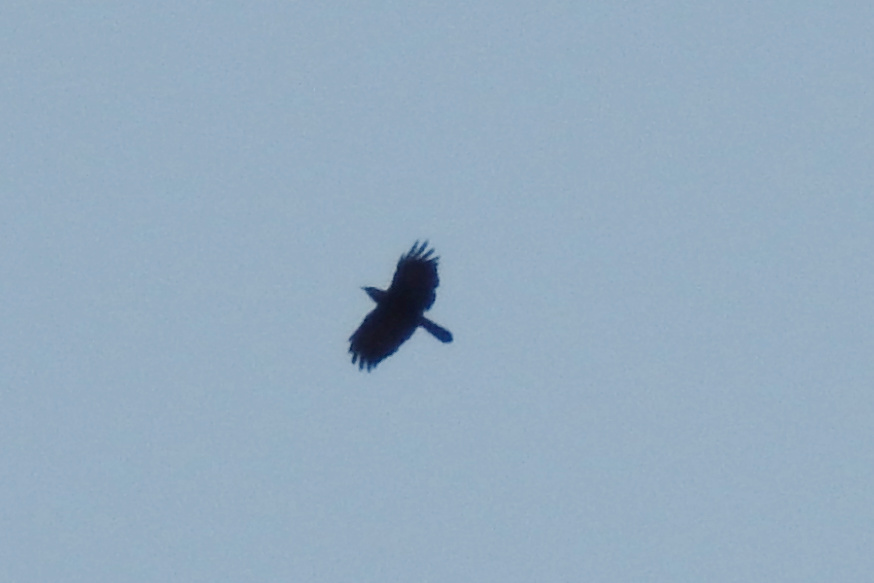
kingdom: Animalia
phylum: Chordata
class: Aves
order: Passeriformes
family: Corvidae
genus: Corvus
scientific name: Corvus
